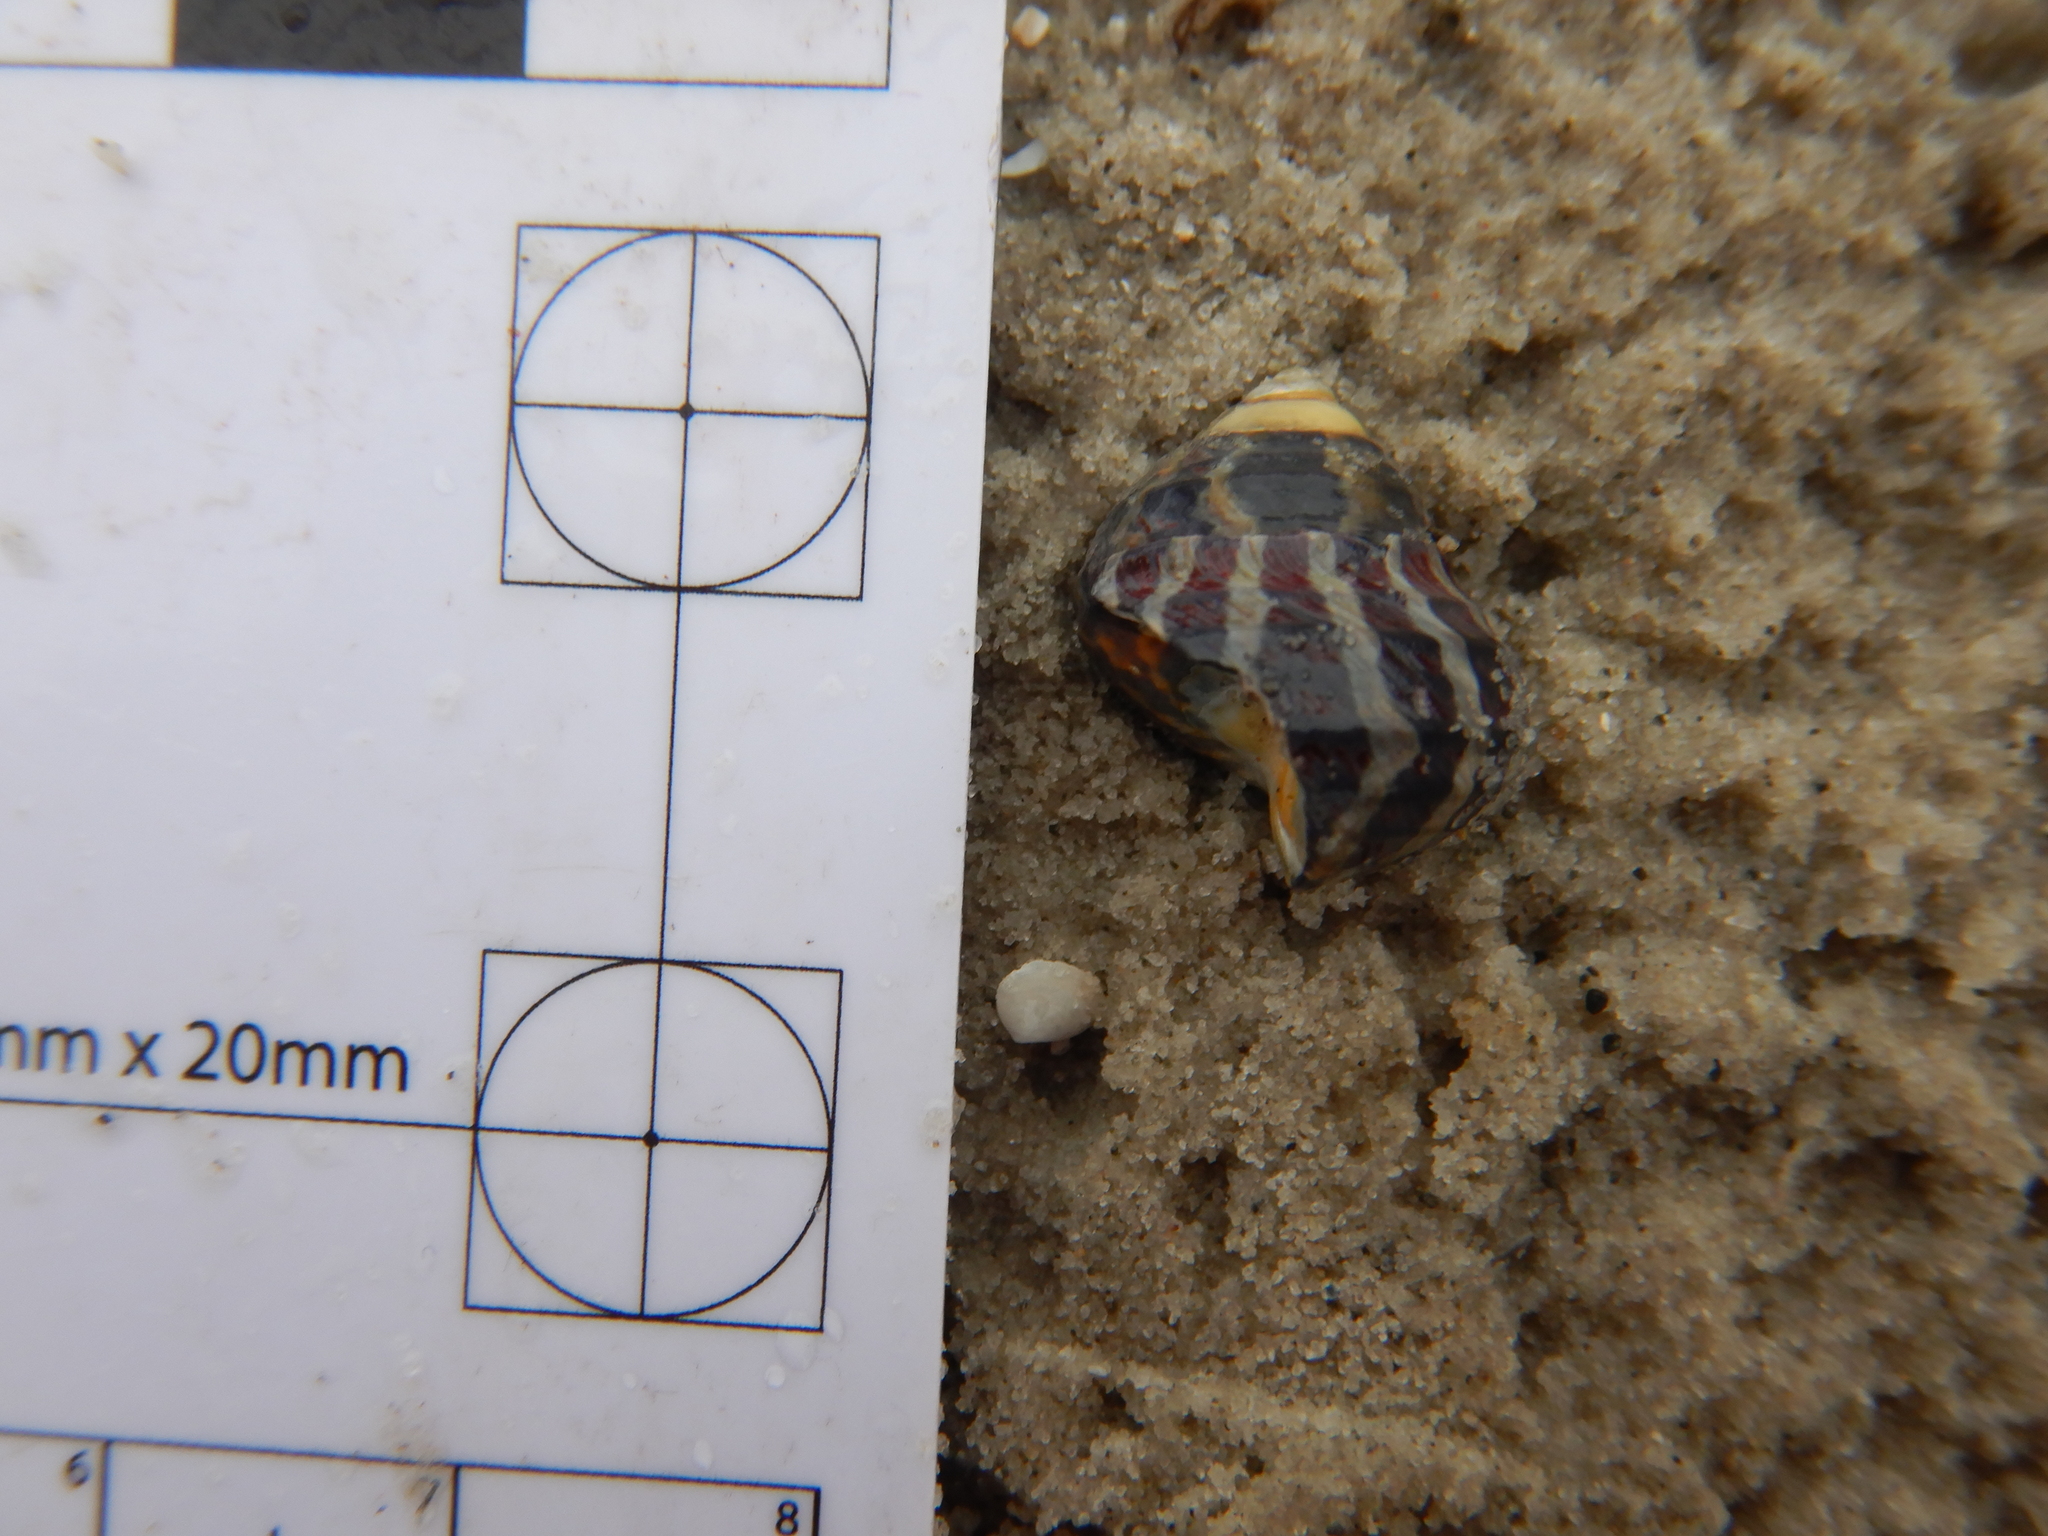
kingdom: Animalia
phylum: Mollusca
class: Gastropoda
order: Trochida
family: Trochidae
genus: Austrocochlea
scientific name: Austrocochlea porcata
